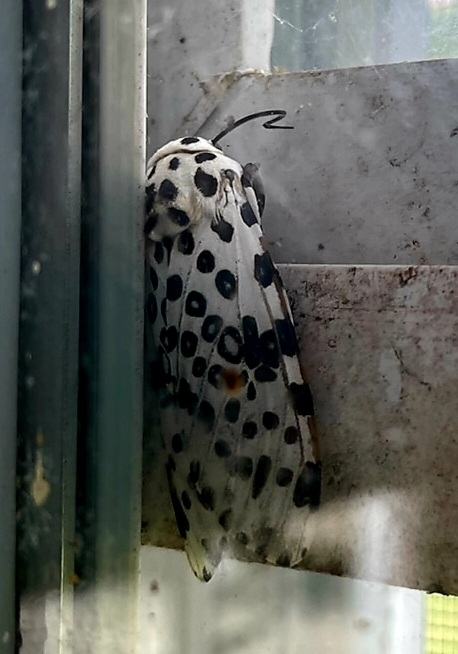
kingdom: Animalia
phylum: Arthropoda
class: Insecta
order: Lepidoptera
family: Erebidae
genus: Hypercompe
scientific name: Hypercompe scribonia
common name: Giant leopard moth
